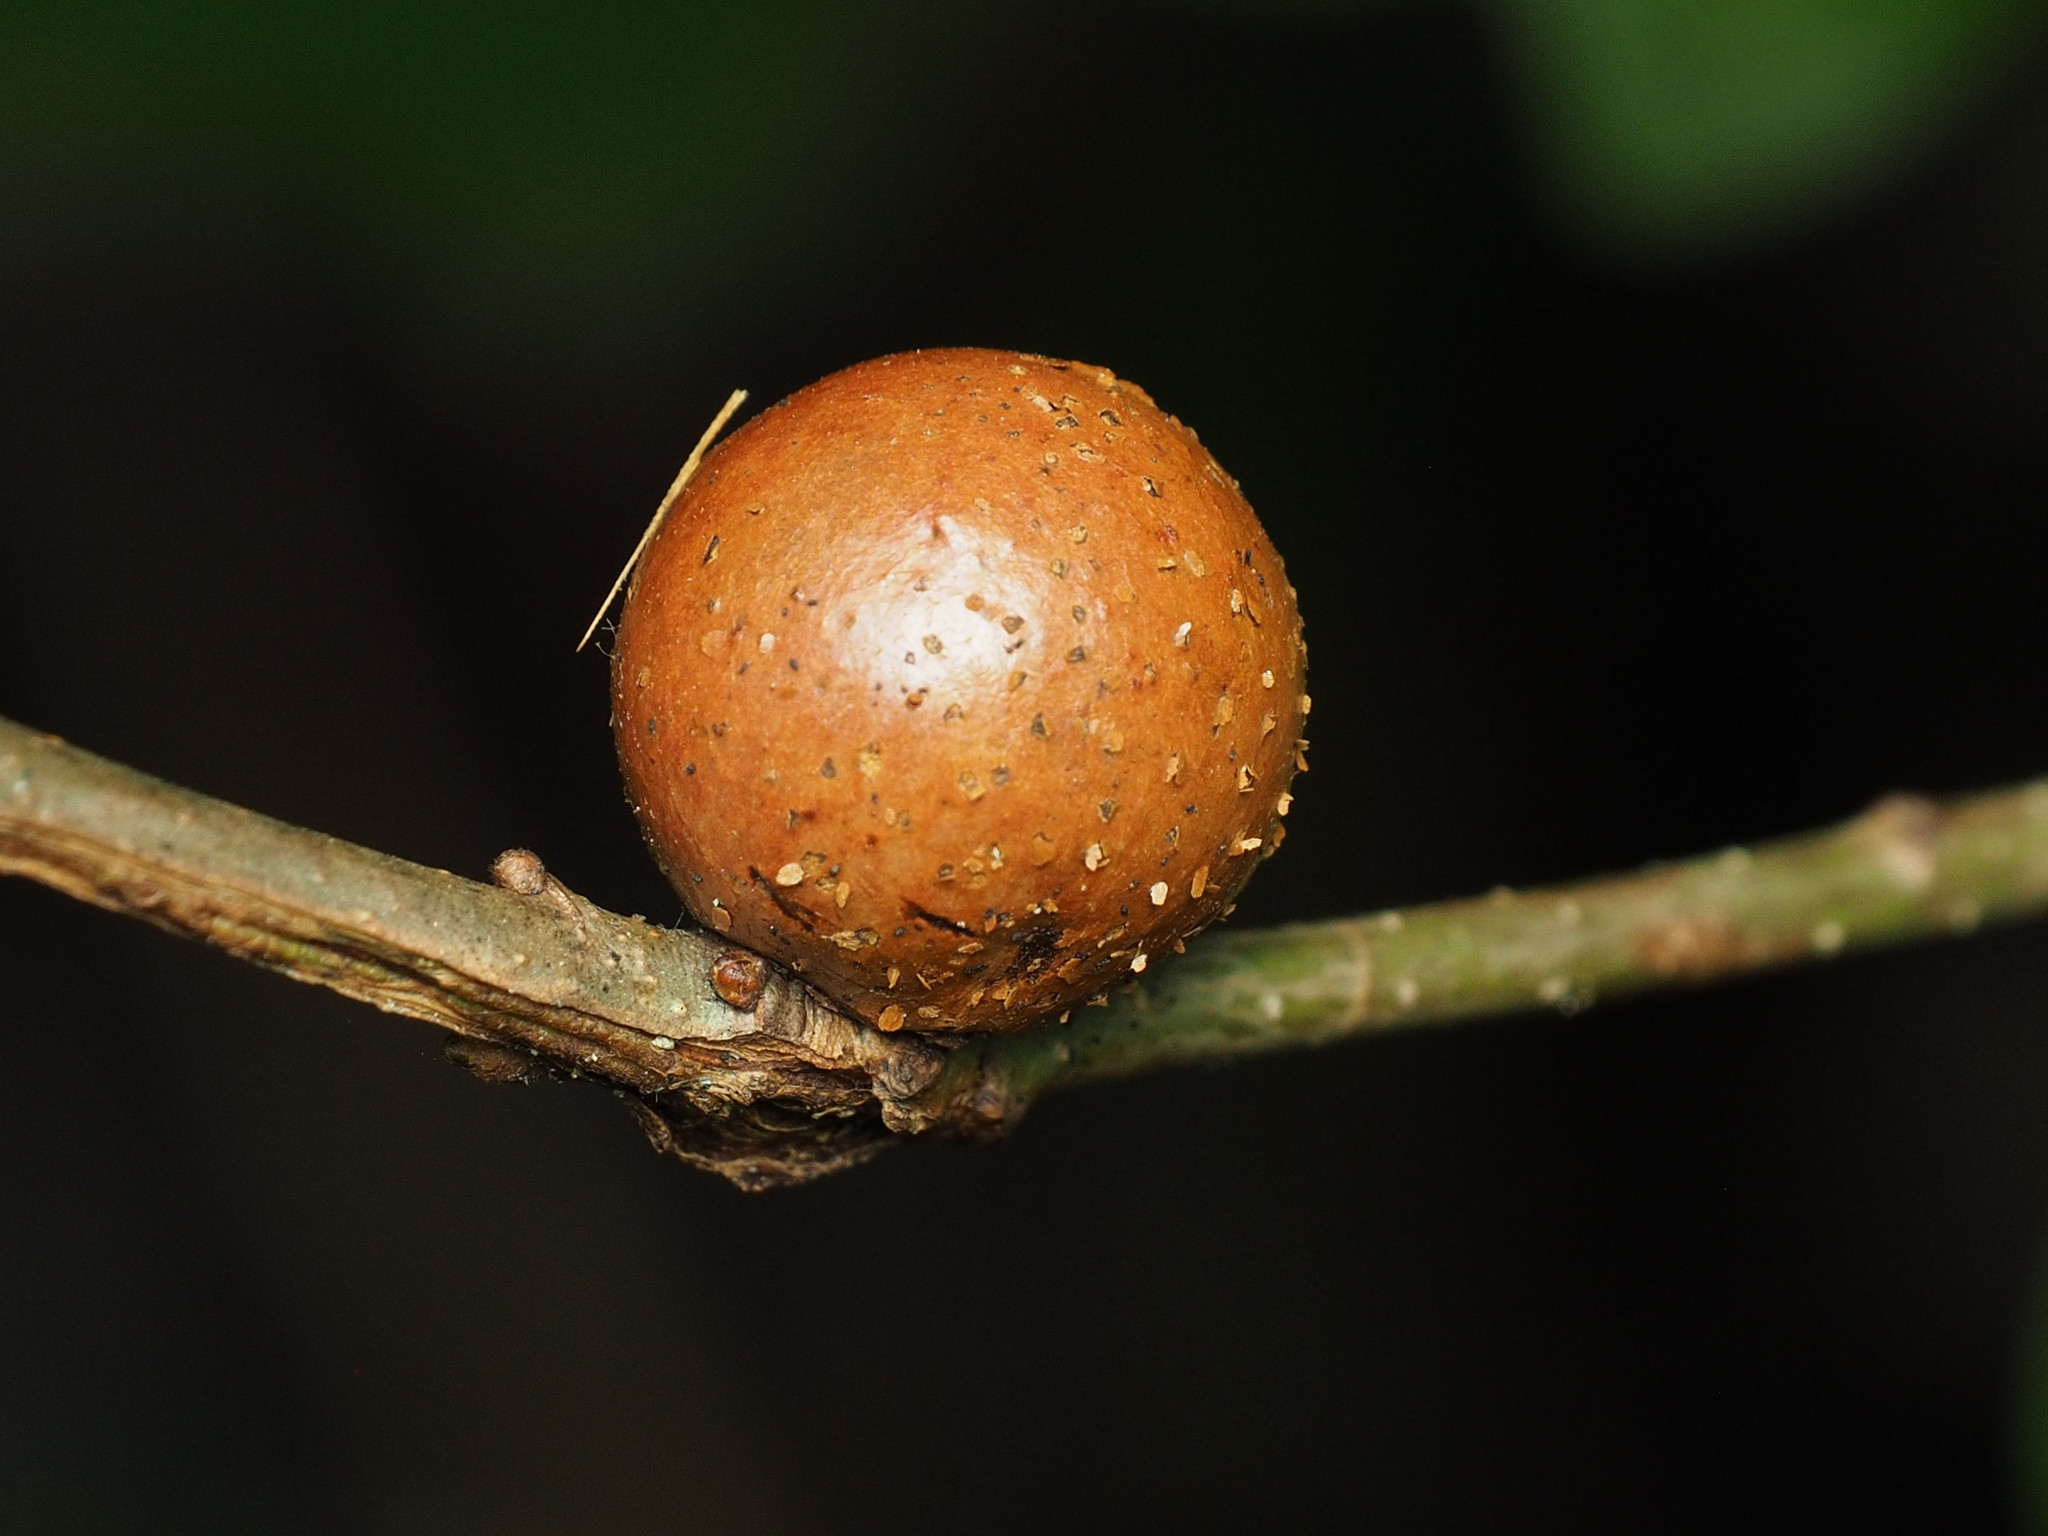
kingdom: Animalia
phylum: Arthropoda
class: Insecta
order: Hymenoptera
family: Cynipidae
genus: Disholcaspis
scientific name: Disholcaspis quercusglobulus
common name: Round bullet gall wasp
